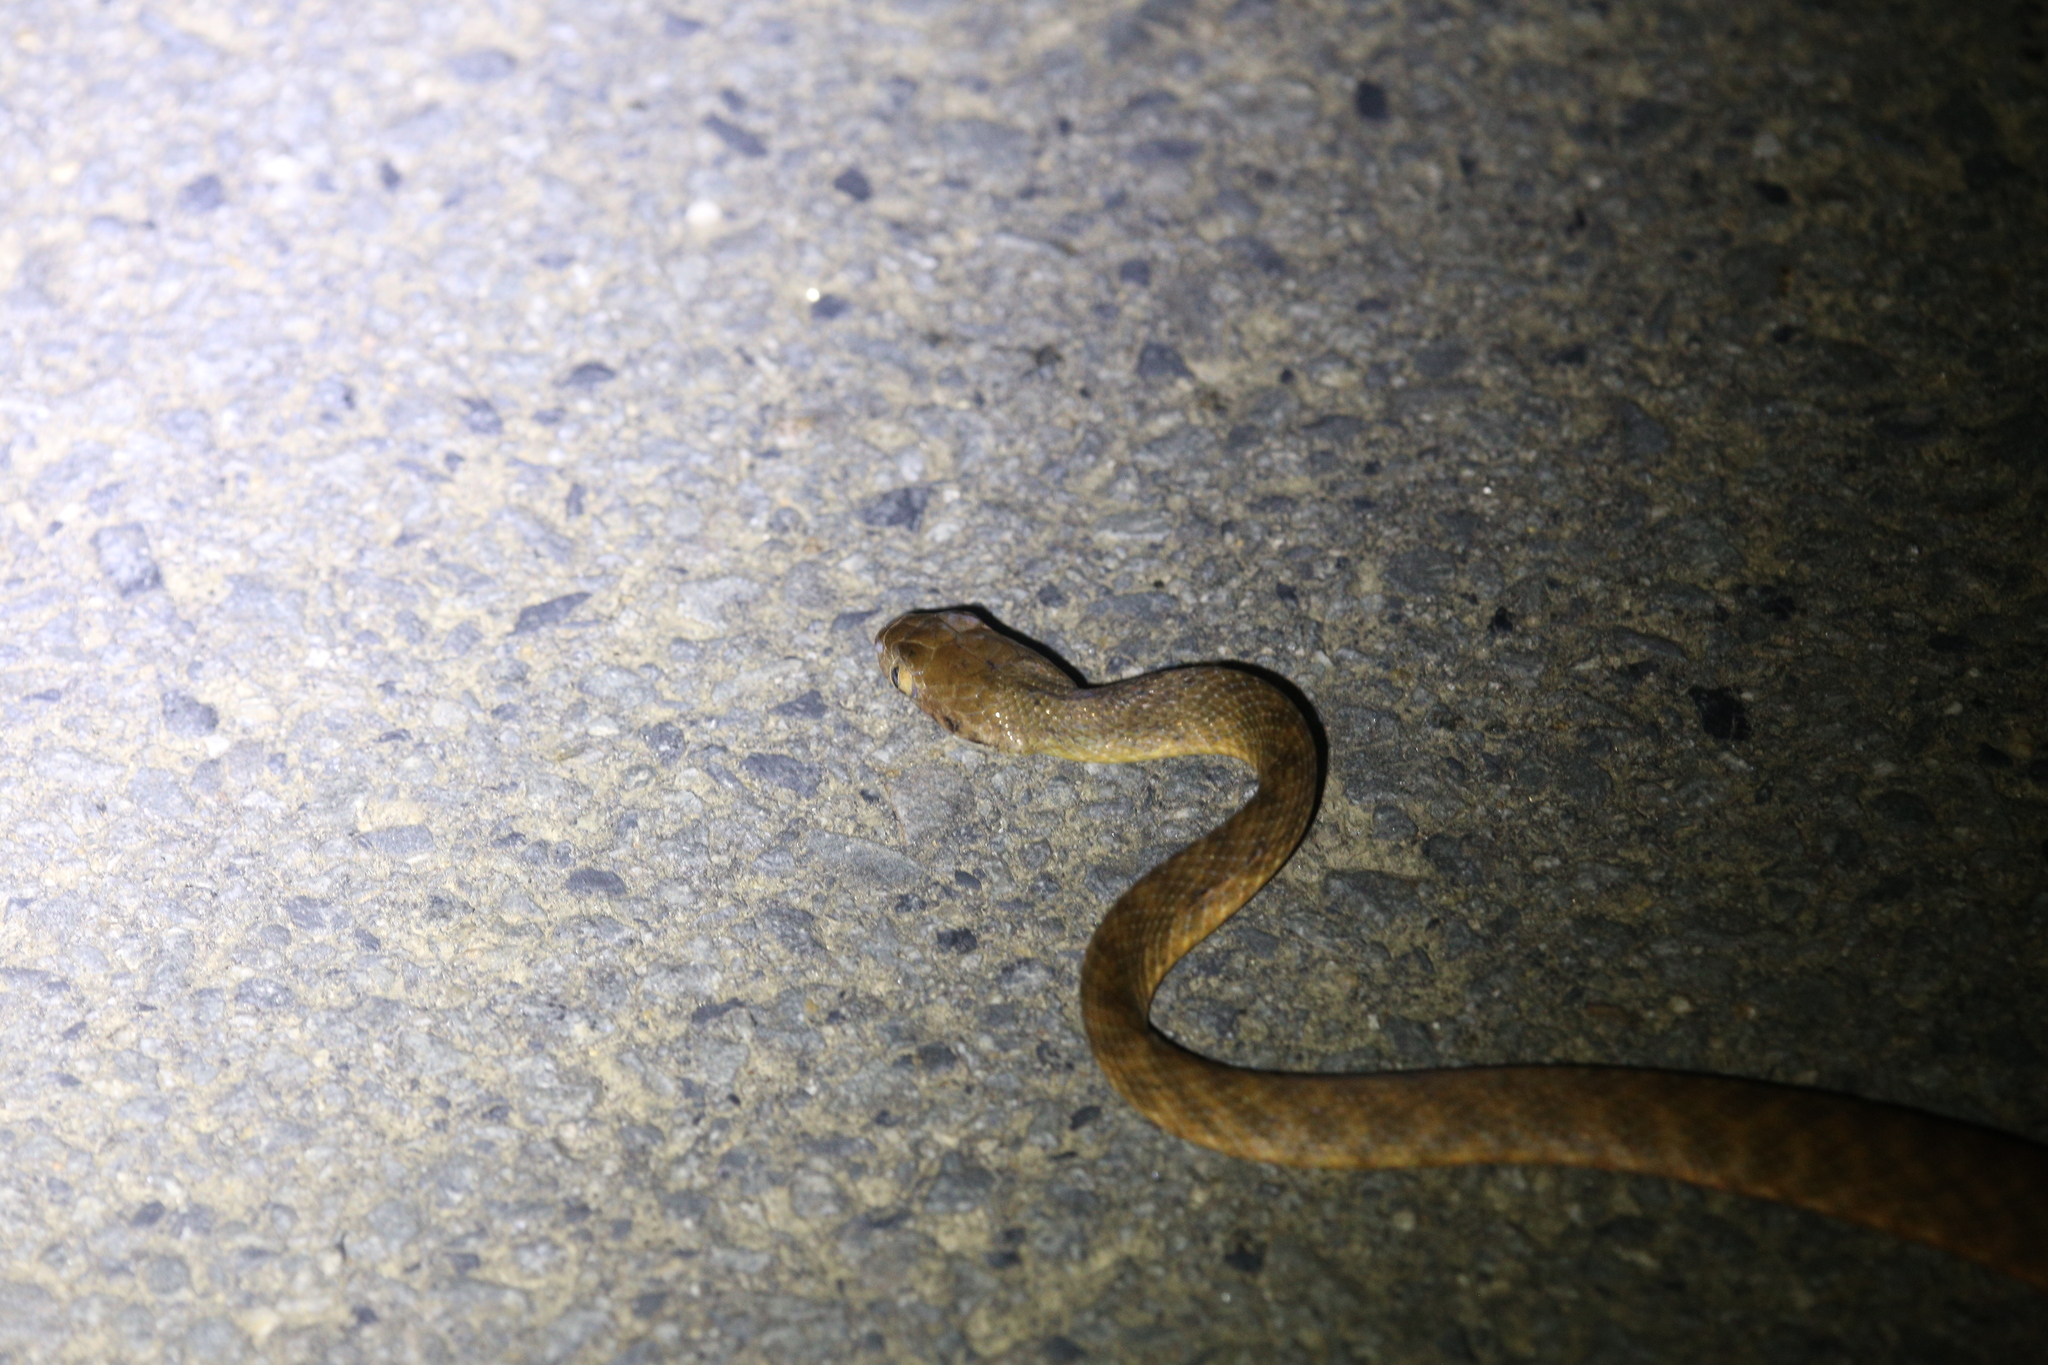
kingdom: Animalia
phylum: Chordata
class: Squamata
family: Colubridae
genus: Boiga
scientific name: Boiga irregularis
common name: Brown tree snake
